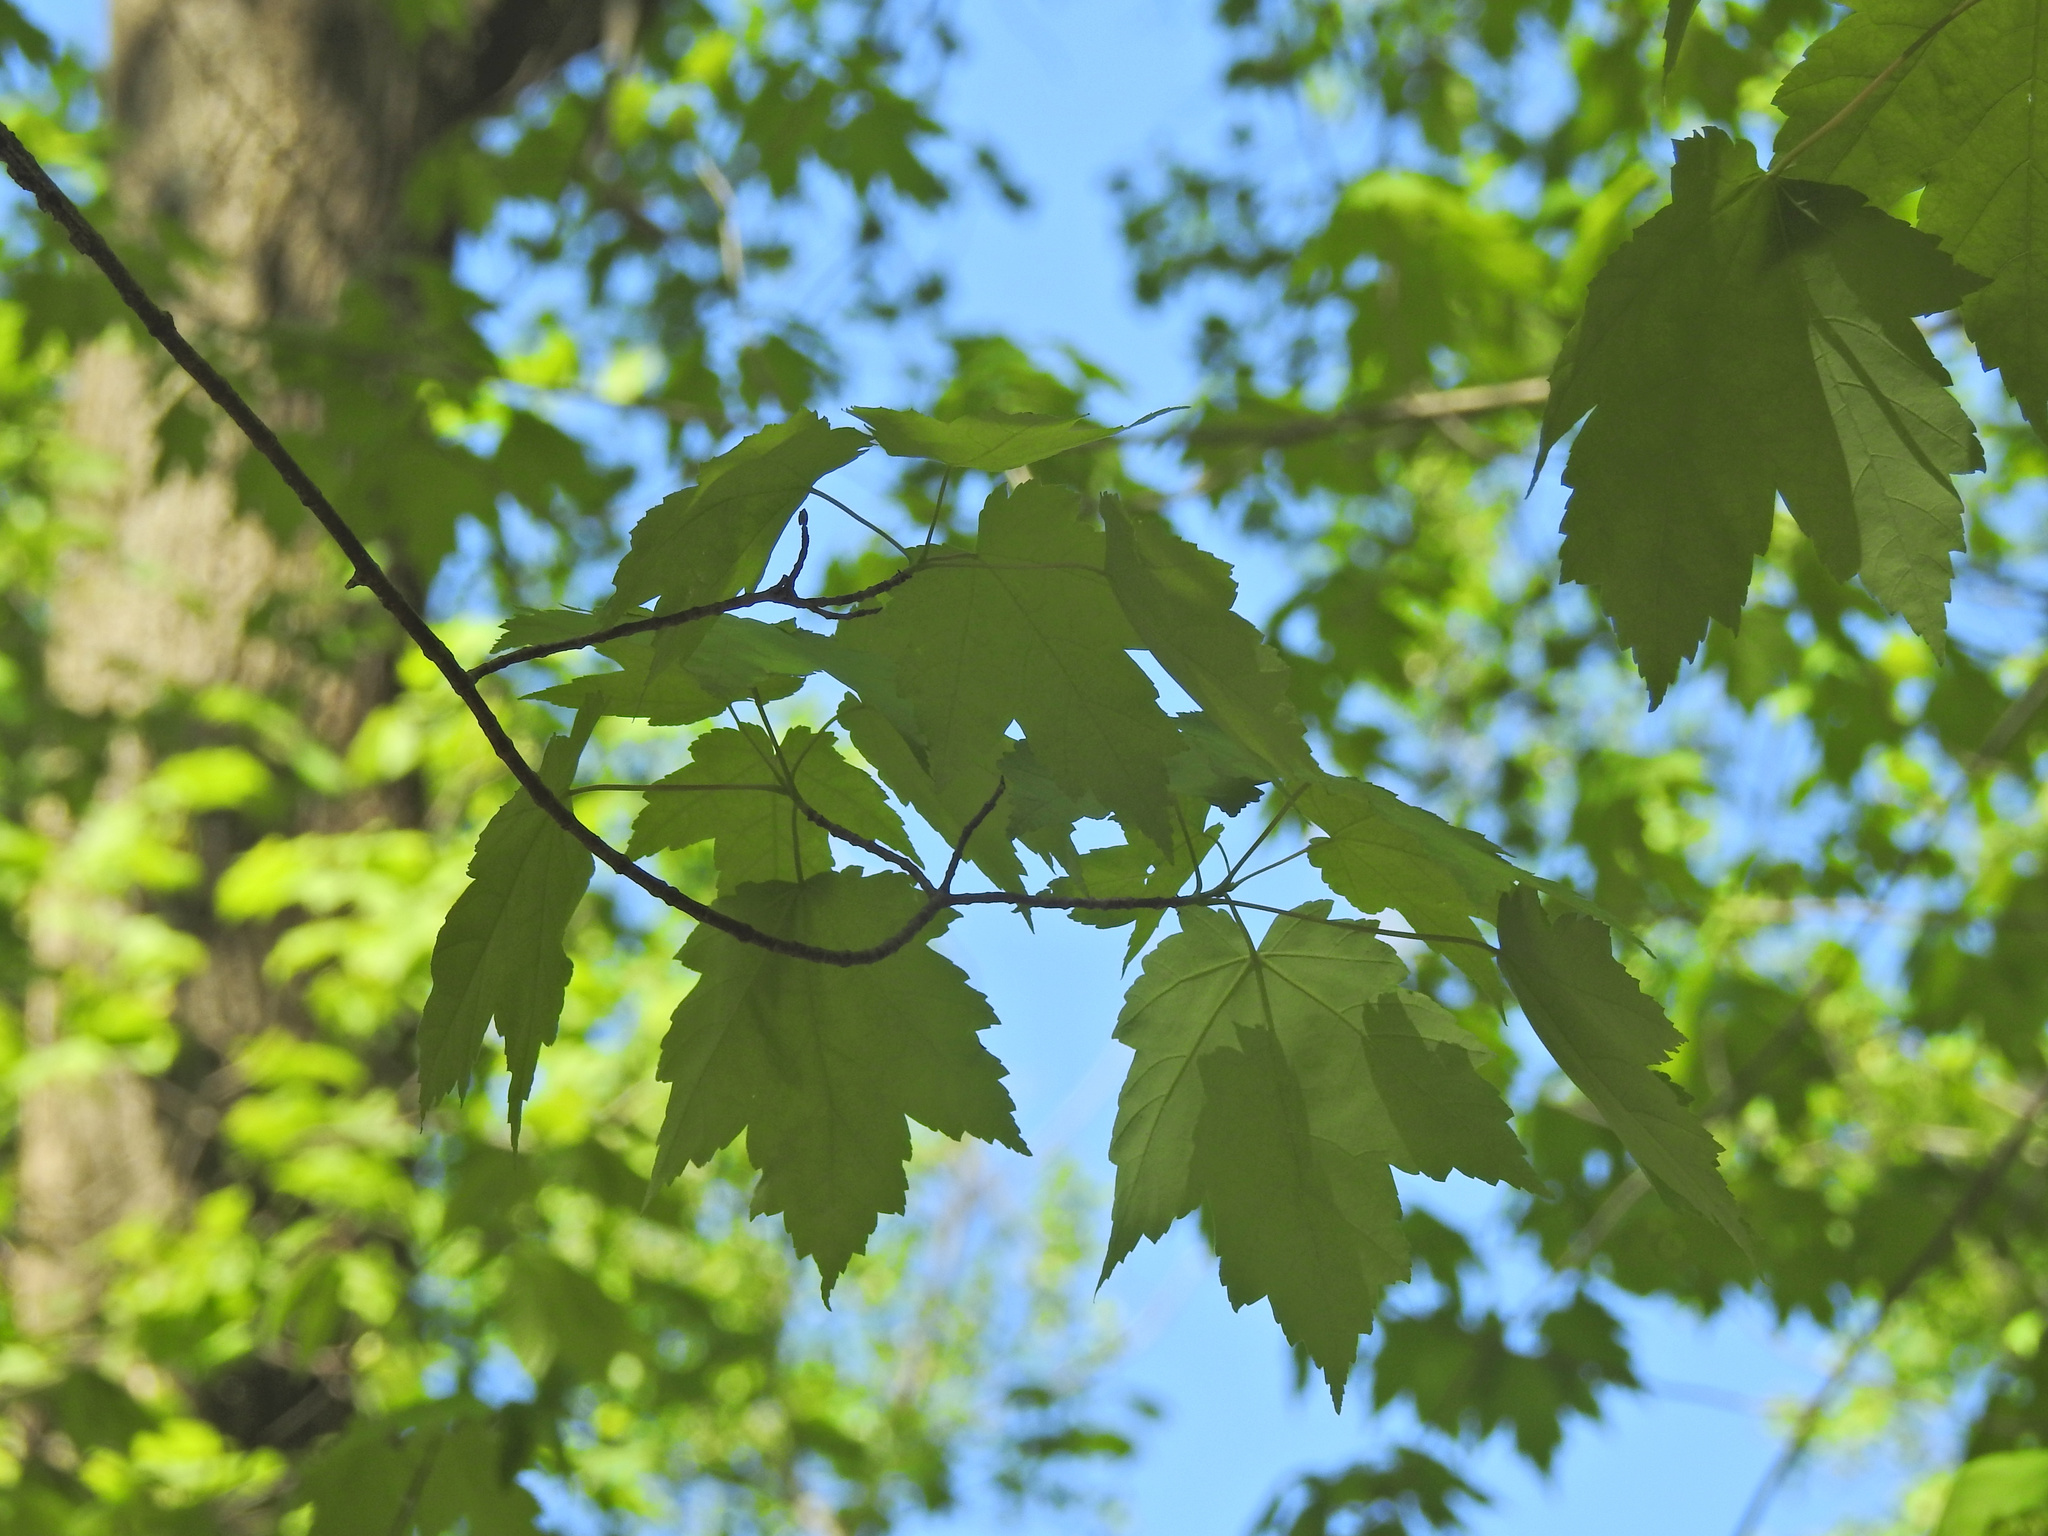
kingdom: Plantae
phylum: Tracheophyta
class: Magnoliopsida
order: Sapindales
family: Sapindaceae
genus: Acer
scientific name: Acer rubrum
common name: Red maple
